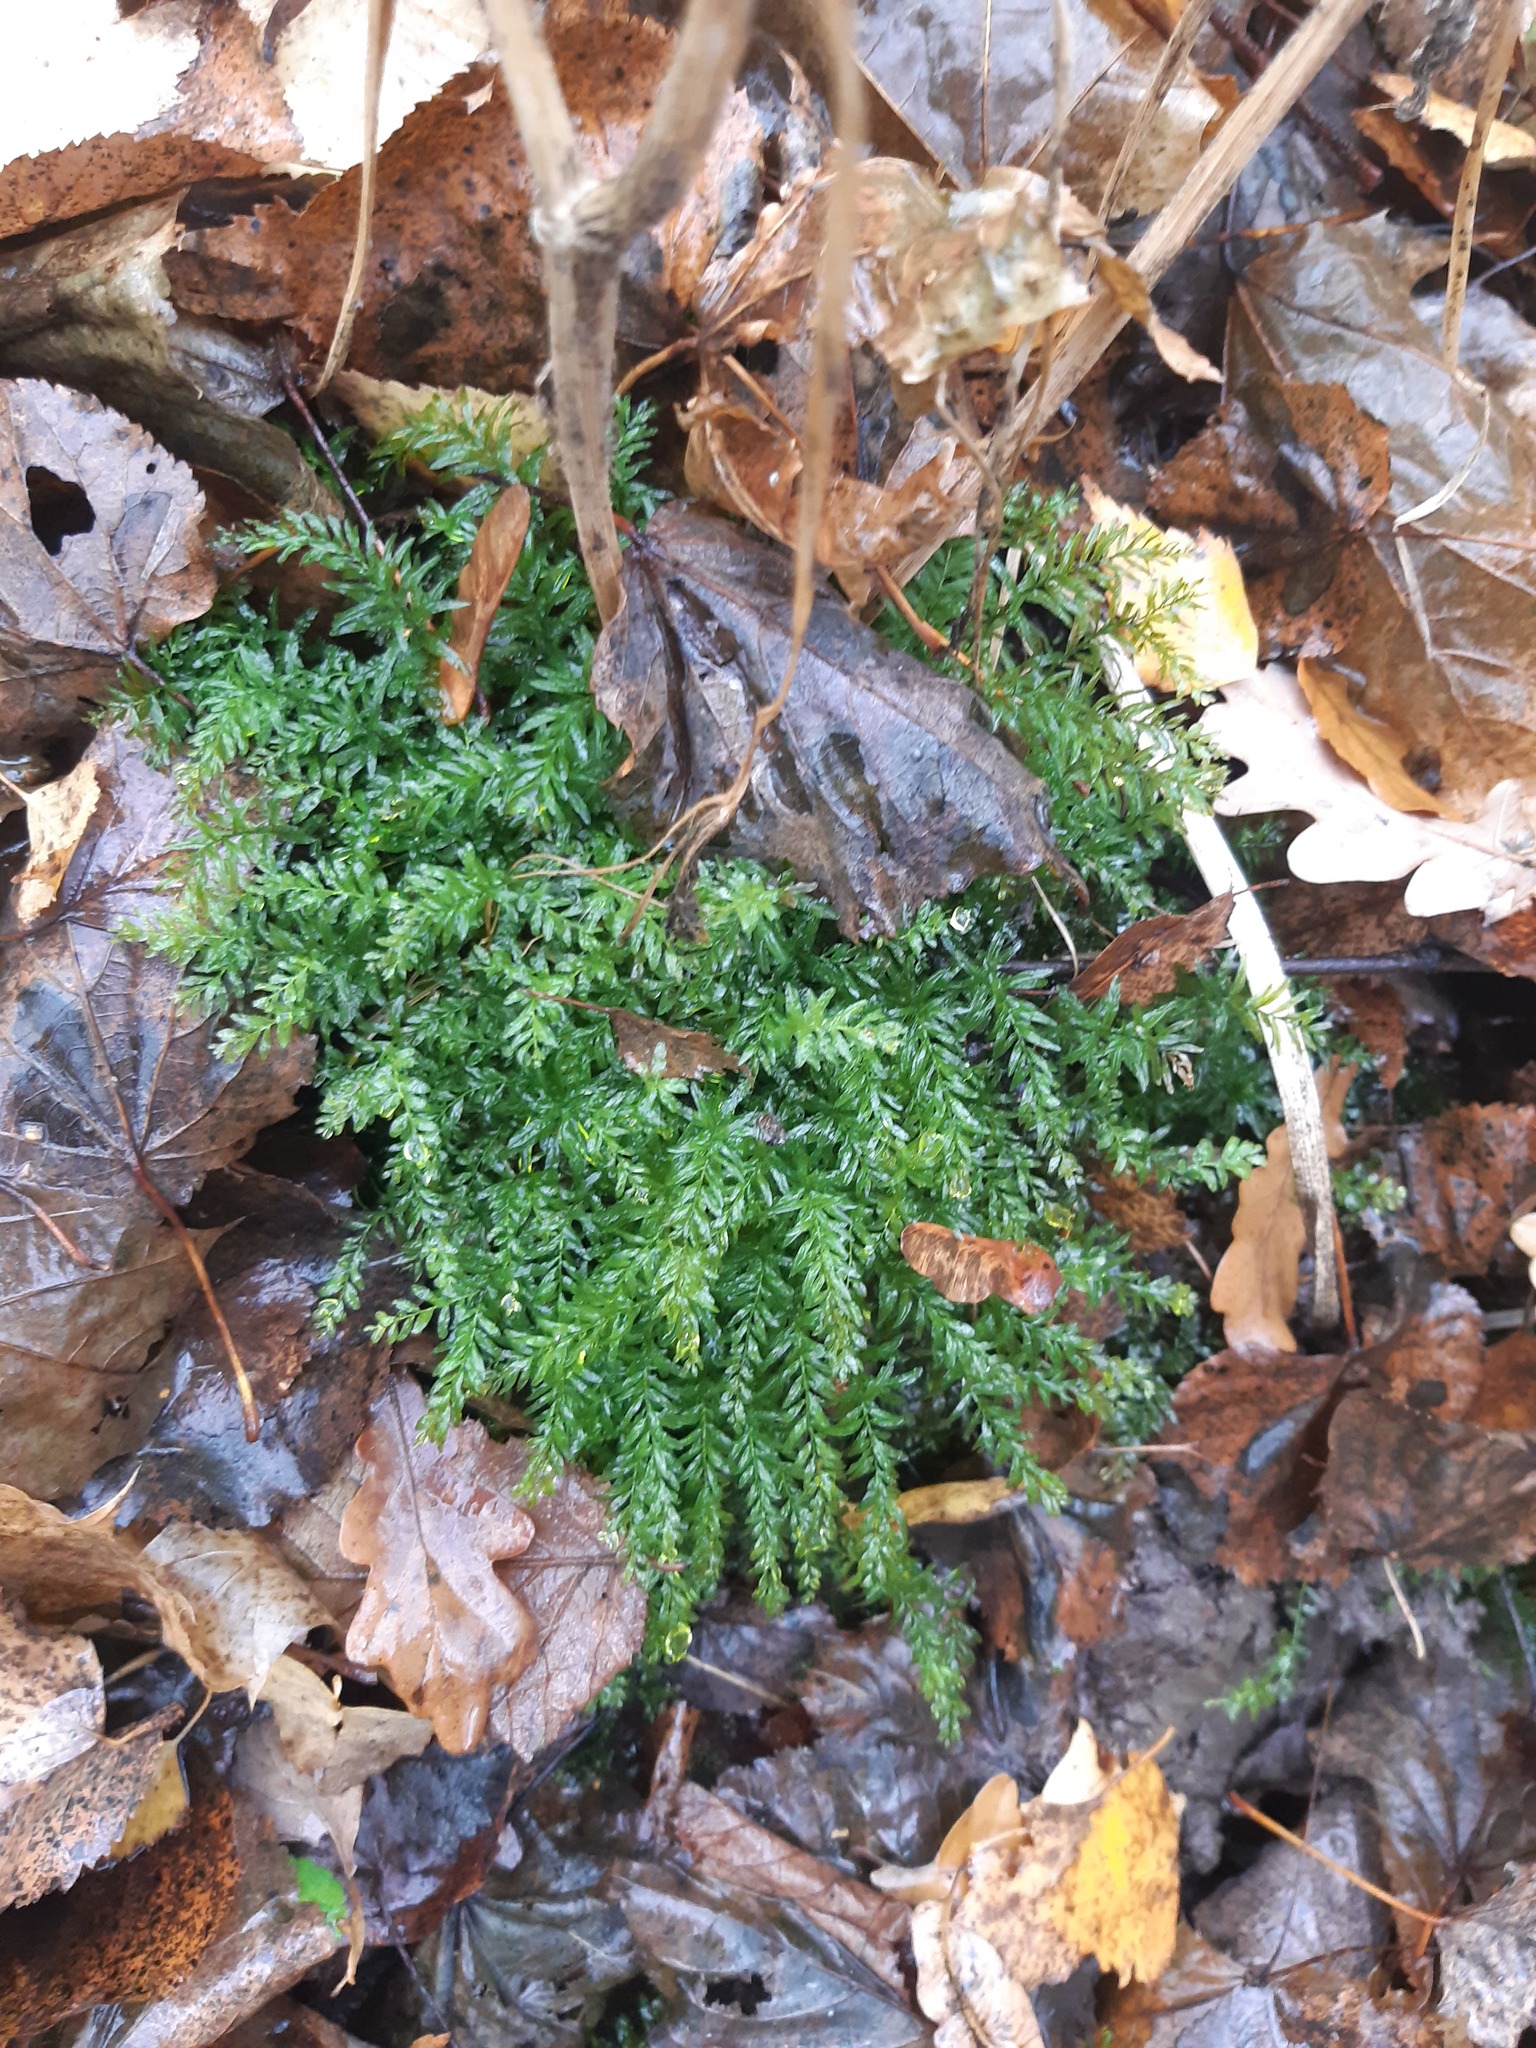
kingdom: Plantae
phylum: Bryophyta
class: Bryopsida
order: Bryales
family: Mniaceae
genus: Plagiomnium
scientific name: Plagiomnium undulatum
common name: Hart's-tongue thyme-moss
